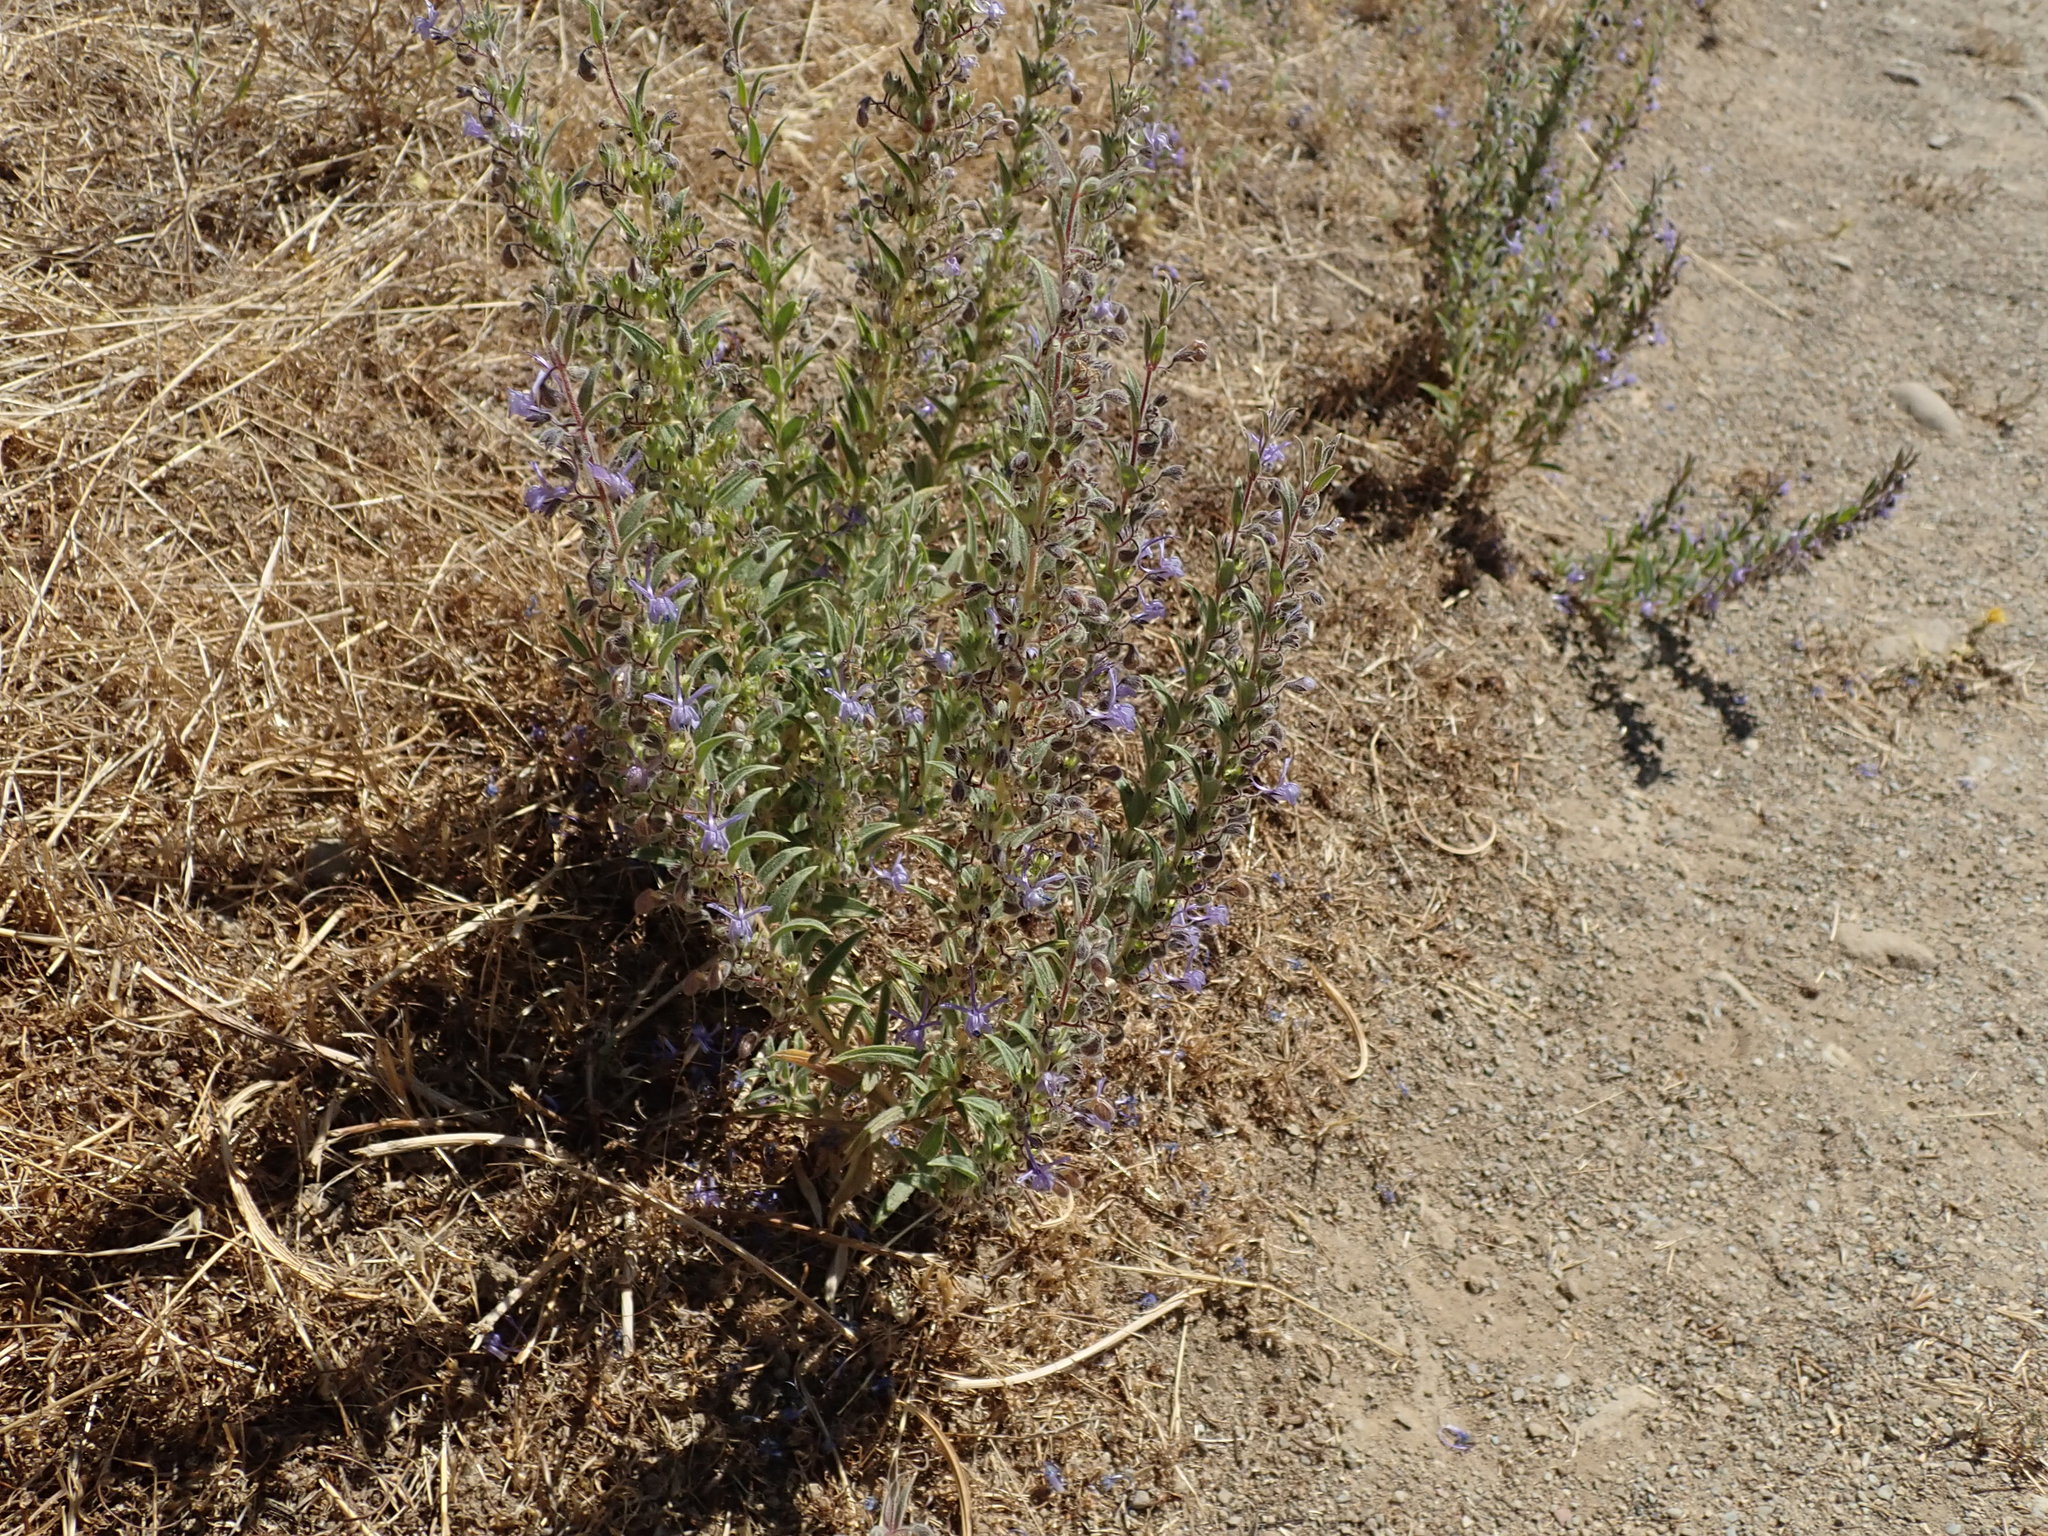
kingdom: Plantae
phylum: Tracheophyta
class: Magnoliopsida
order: Lamiales
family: Lamiaceae
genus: Trichostema
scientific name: Trichostema lanceolatum
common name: Vinegar-weed
